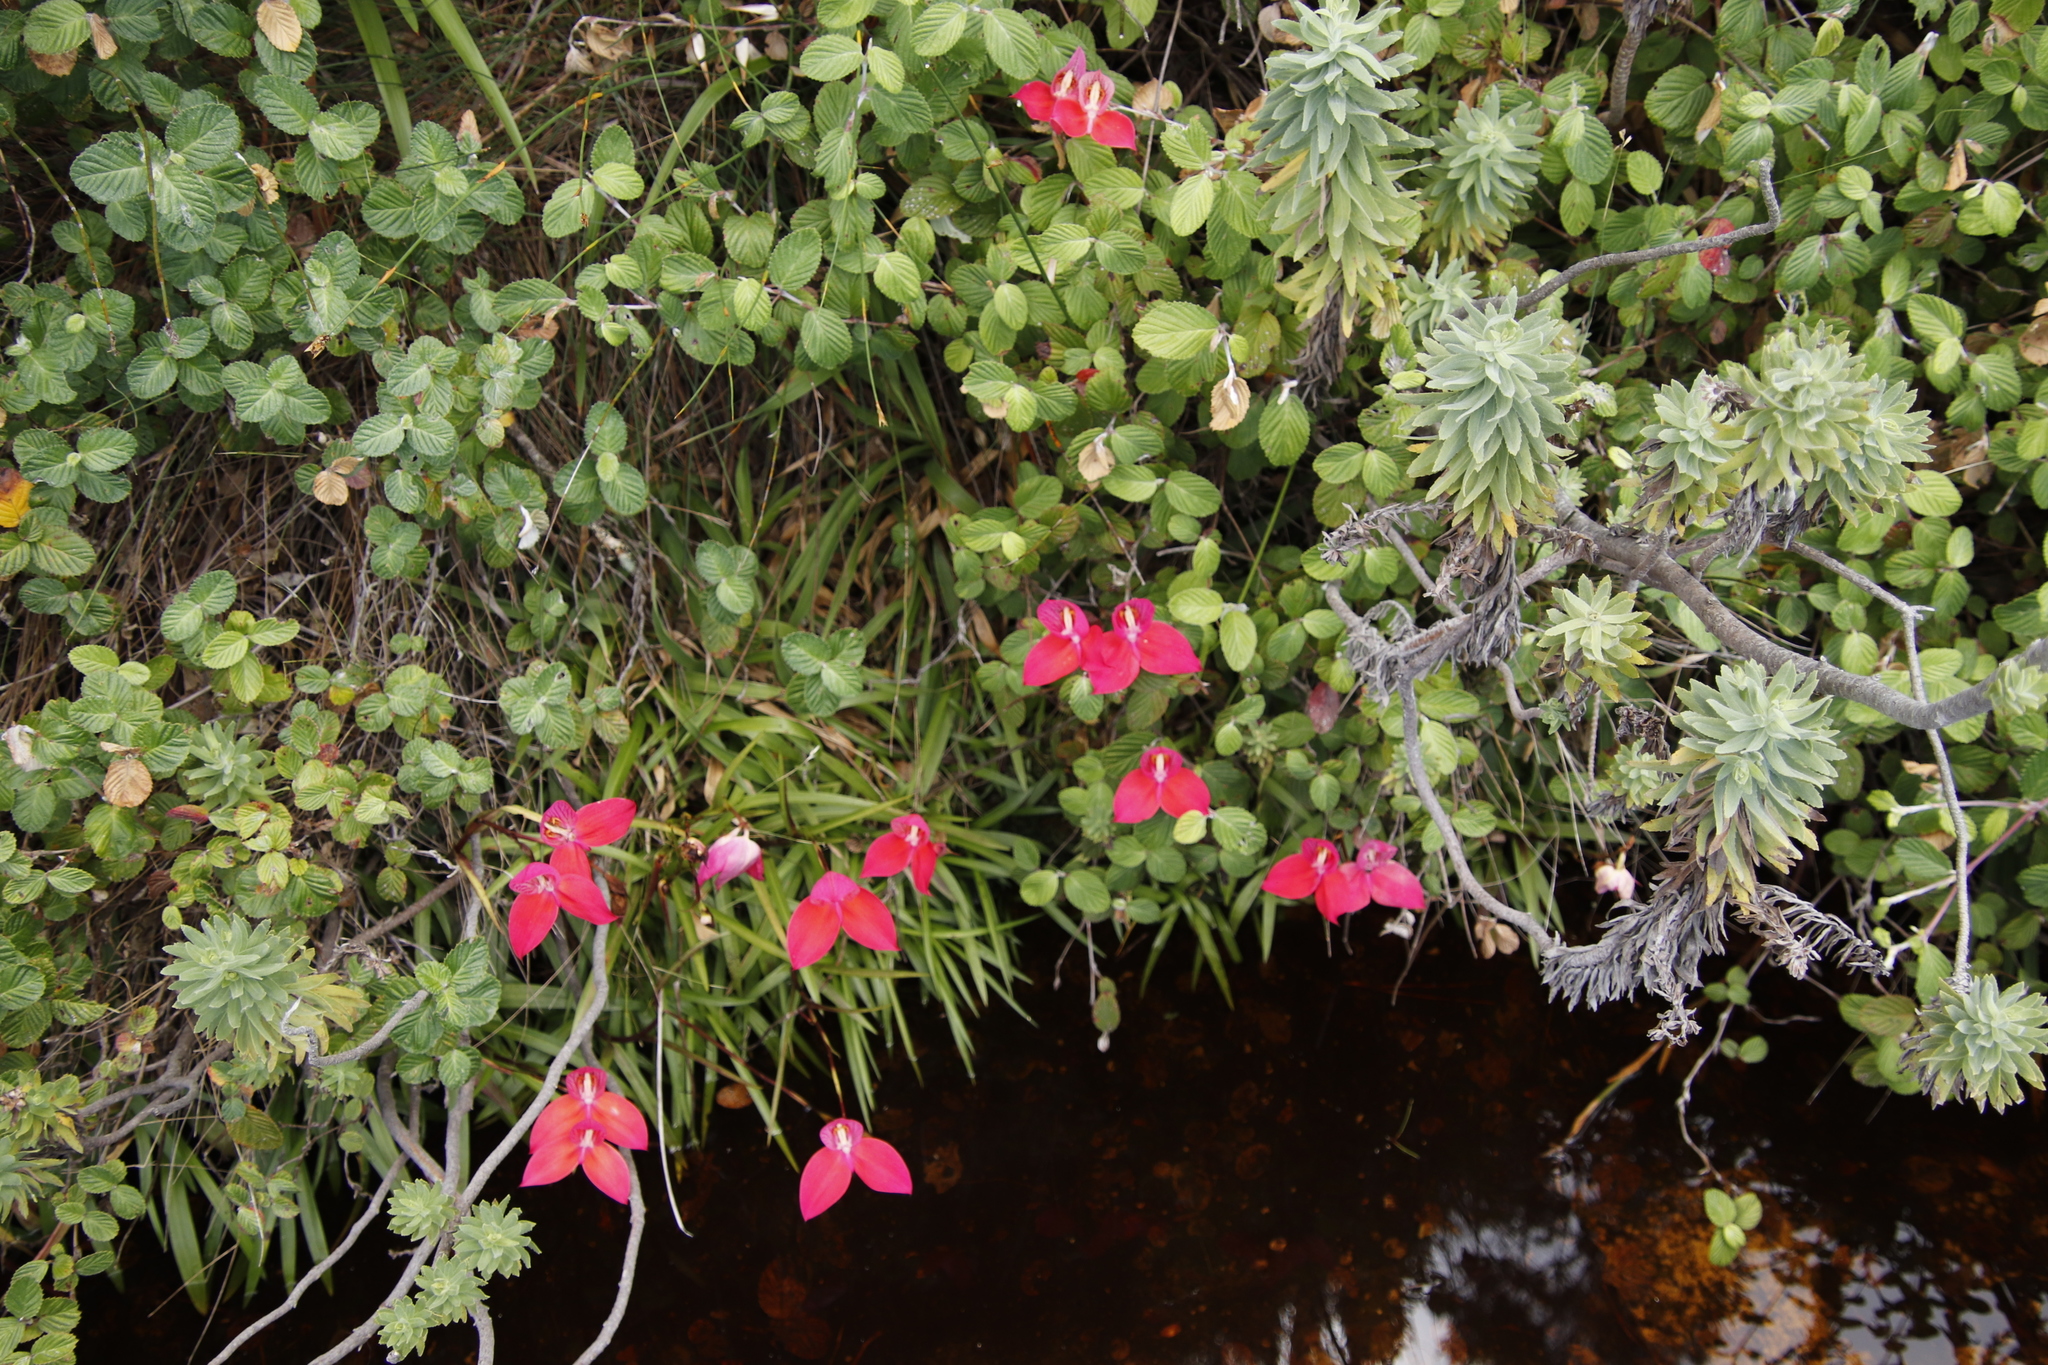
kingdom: Plantae
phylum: Tracheophyta
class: Liliopsida
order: Asparagales
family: Orchidaceae
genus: Disa
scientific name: Disa uniflora
